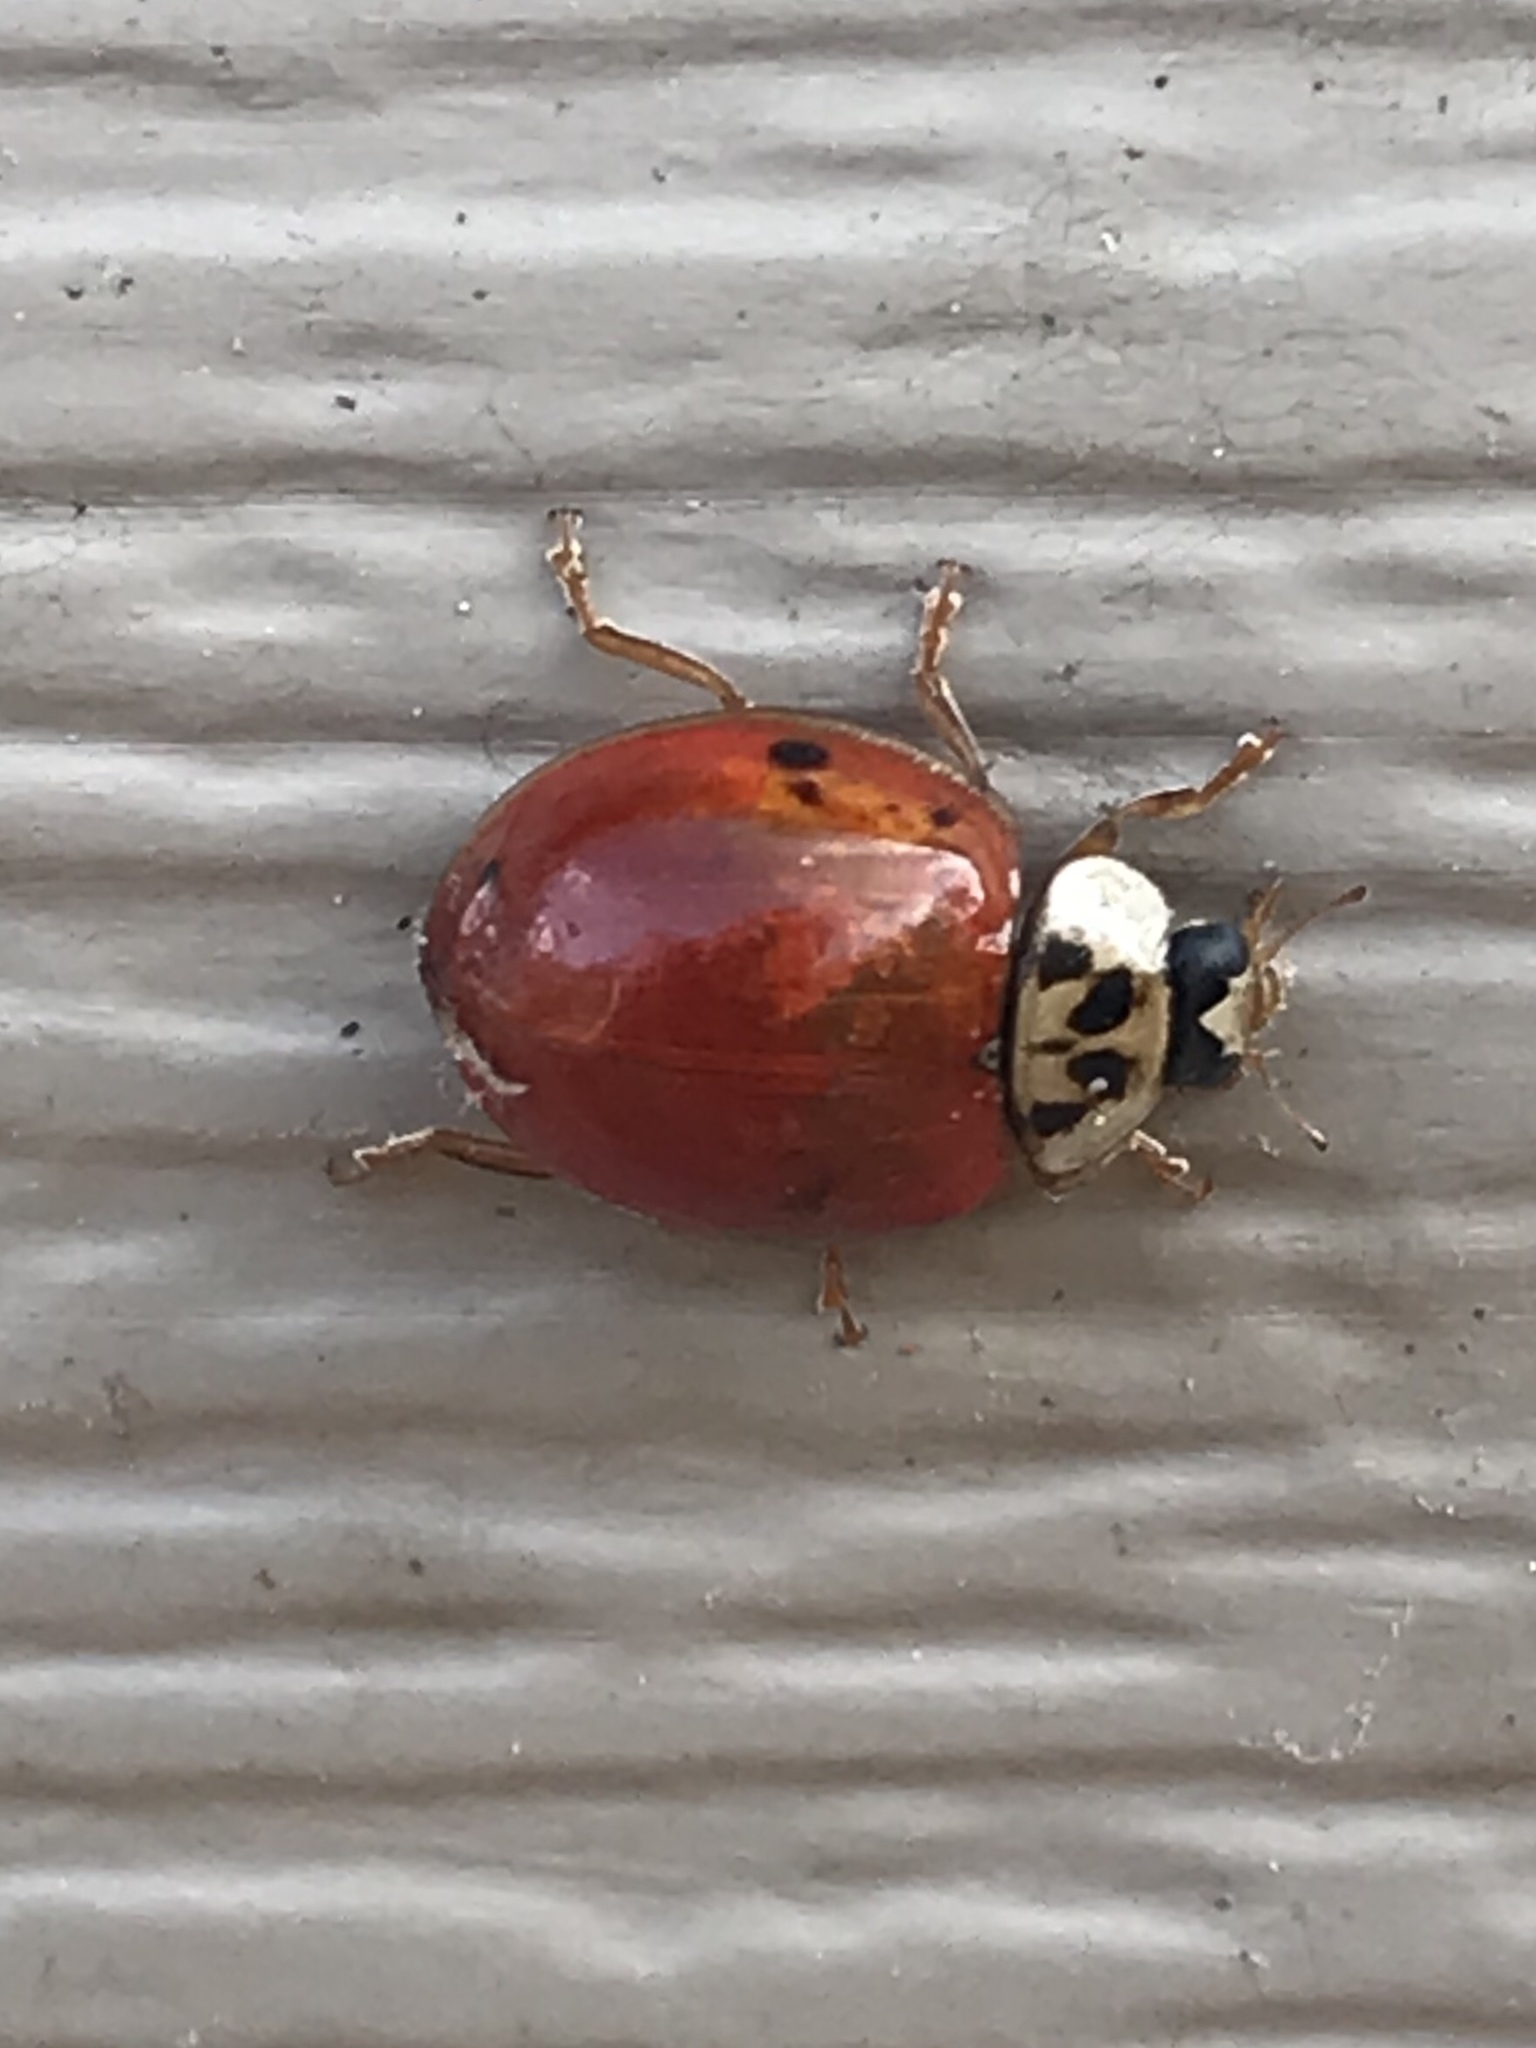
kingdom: Animalia
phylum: Arthropoda
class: Insecta
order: Coleoptera
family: Coccinellidae
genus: Harmonia
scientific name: Harmonia axyridis
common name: Harlequin ladybird
